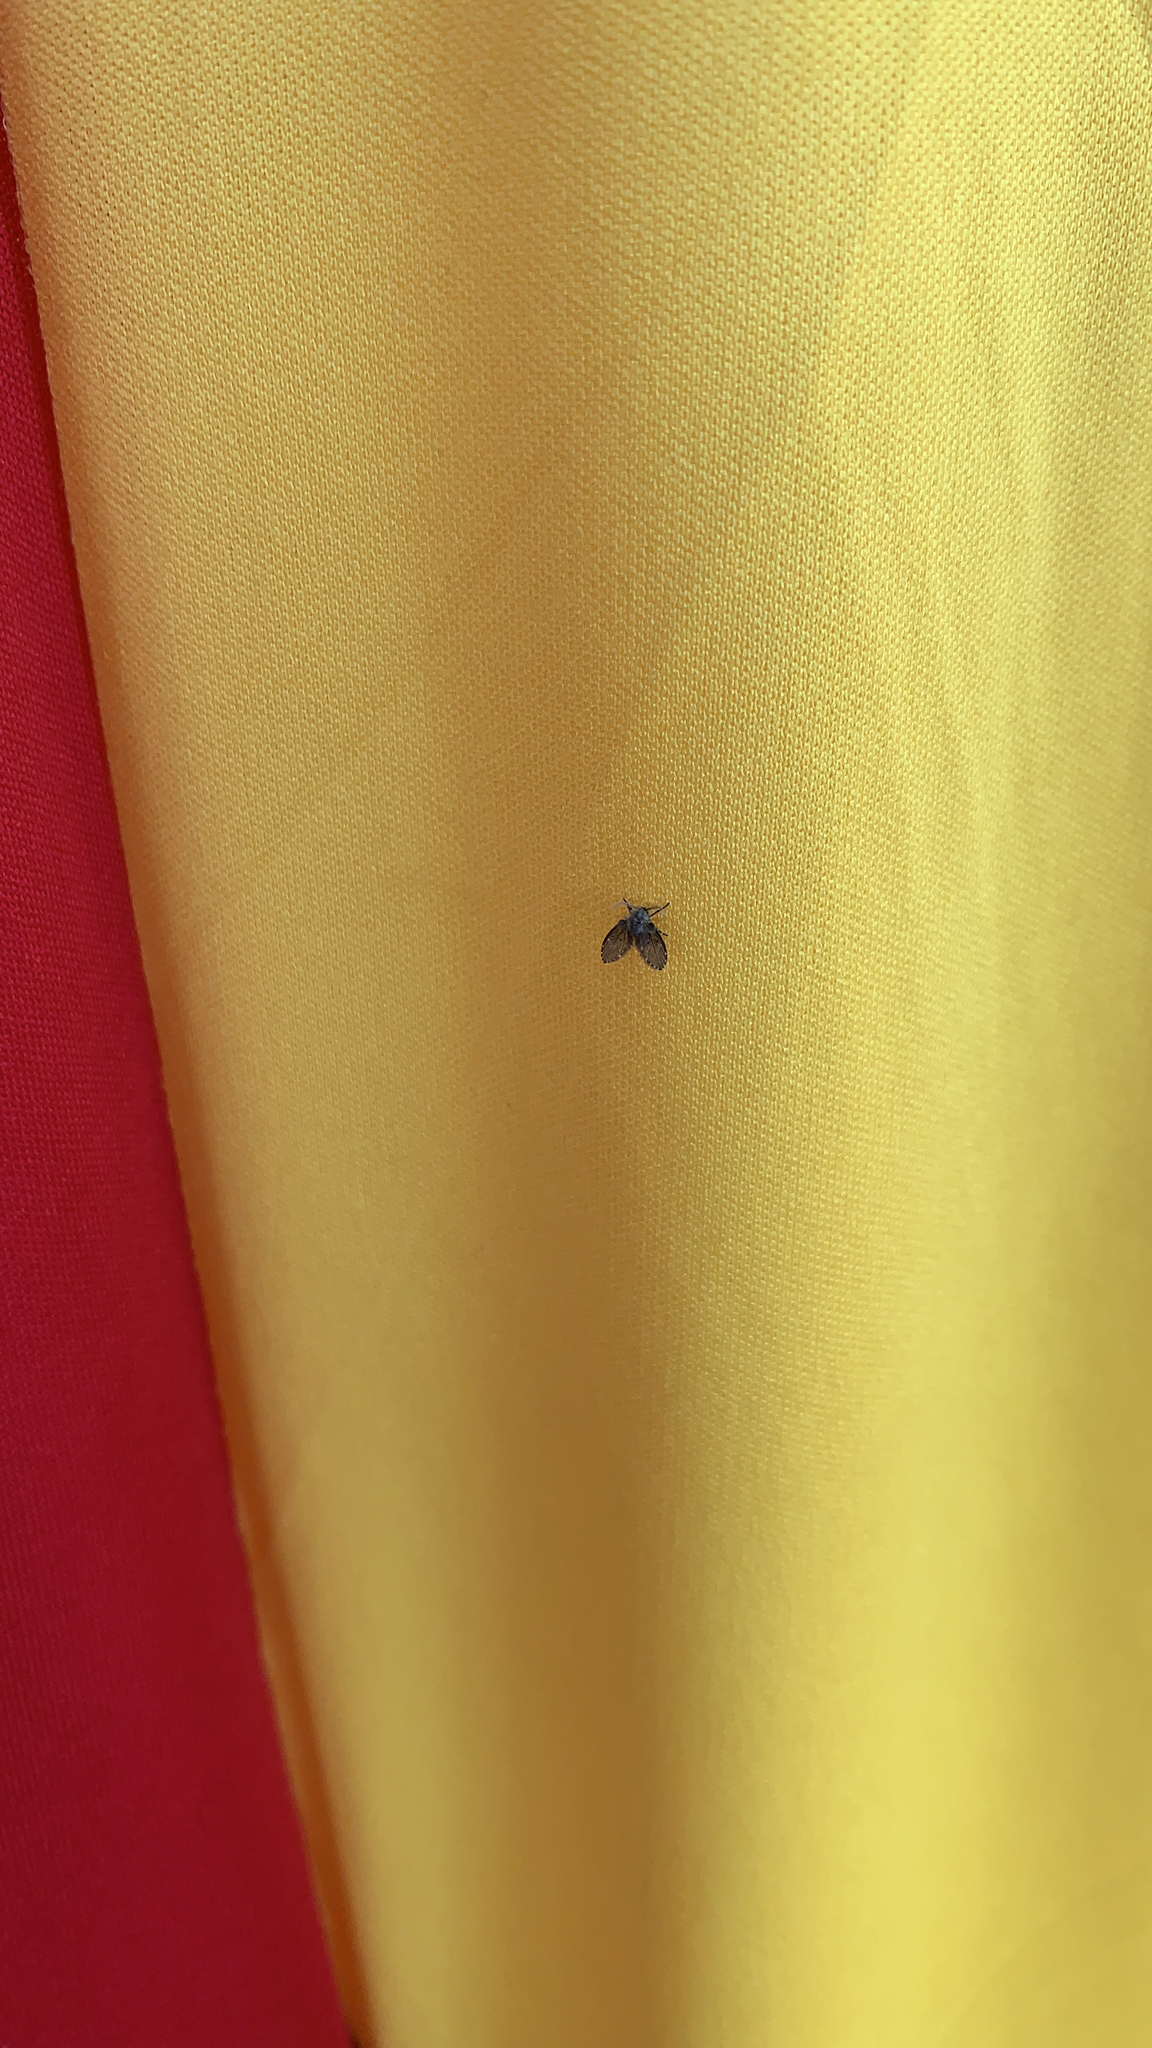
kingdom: Animalia
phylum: Arthropoda
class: Insecta
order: Diptera
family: Psychodidae
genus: Clogmia
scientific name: Clogmia albipunctatus
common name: White-spotted moth fly
